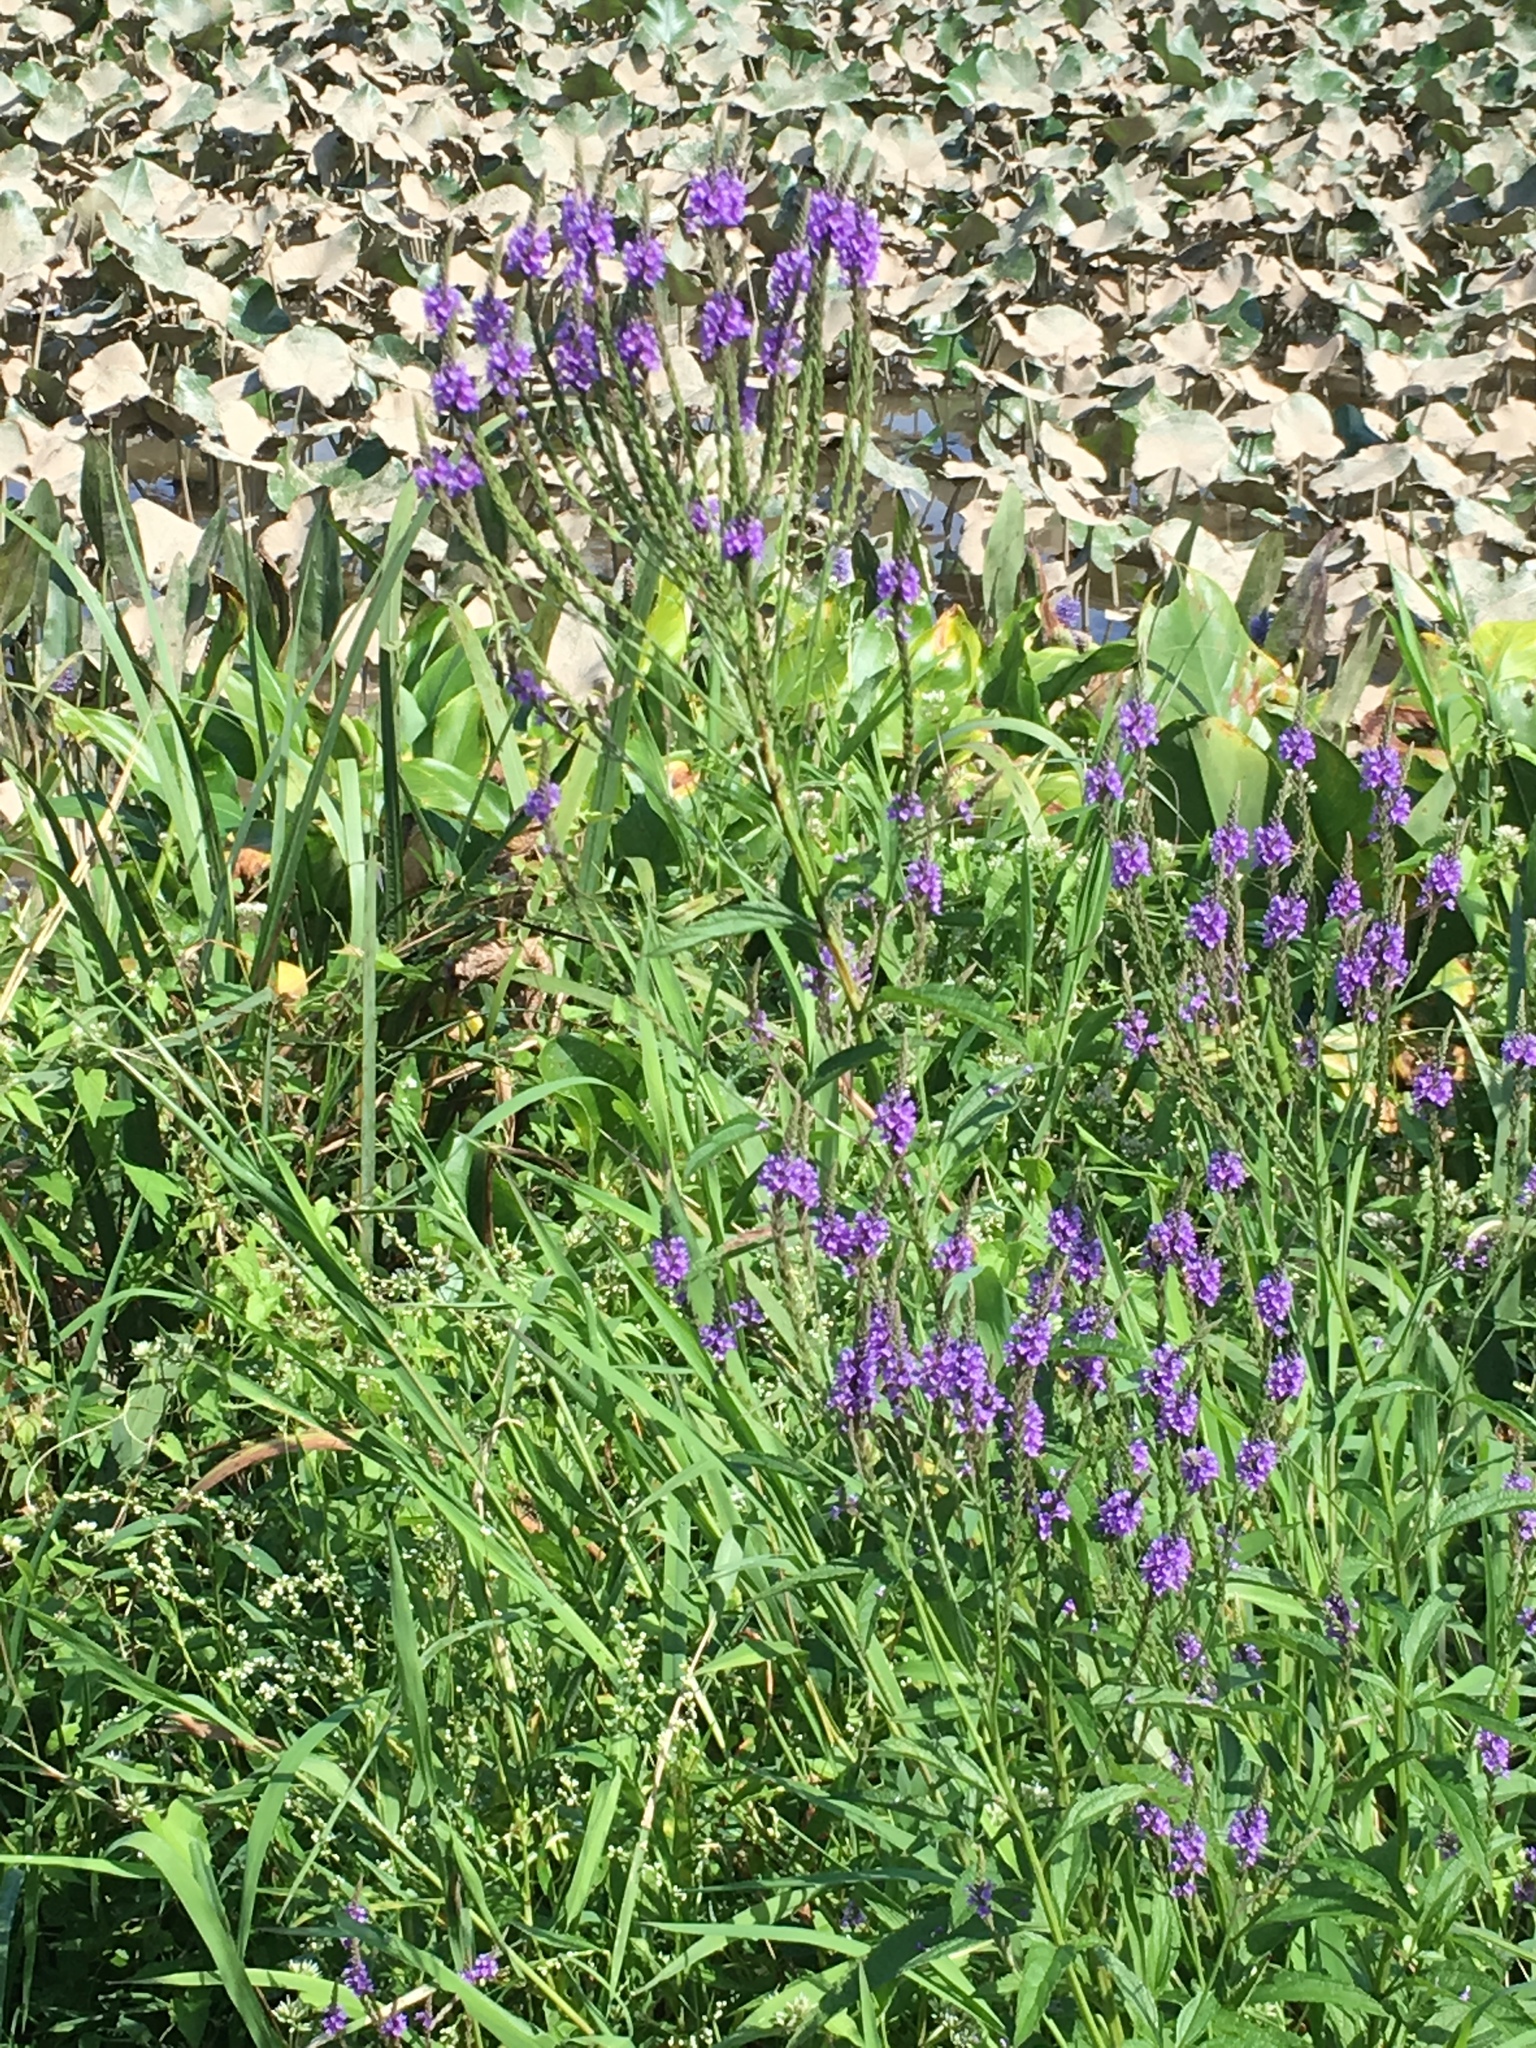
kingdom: Plantae
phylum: Tracheophyta
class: Magnoliopsida
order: Lamiales
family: Verbenaceae
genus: Verbena
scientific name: Verbena hastata
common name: American blue vervain
